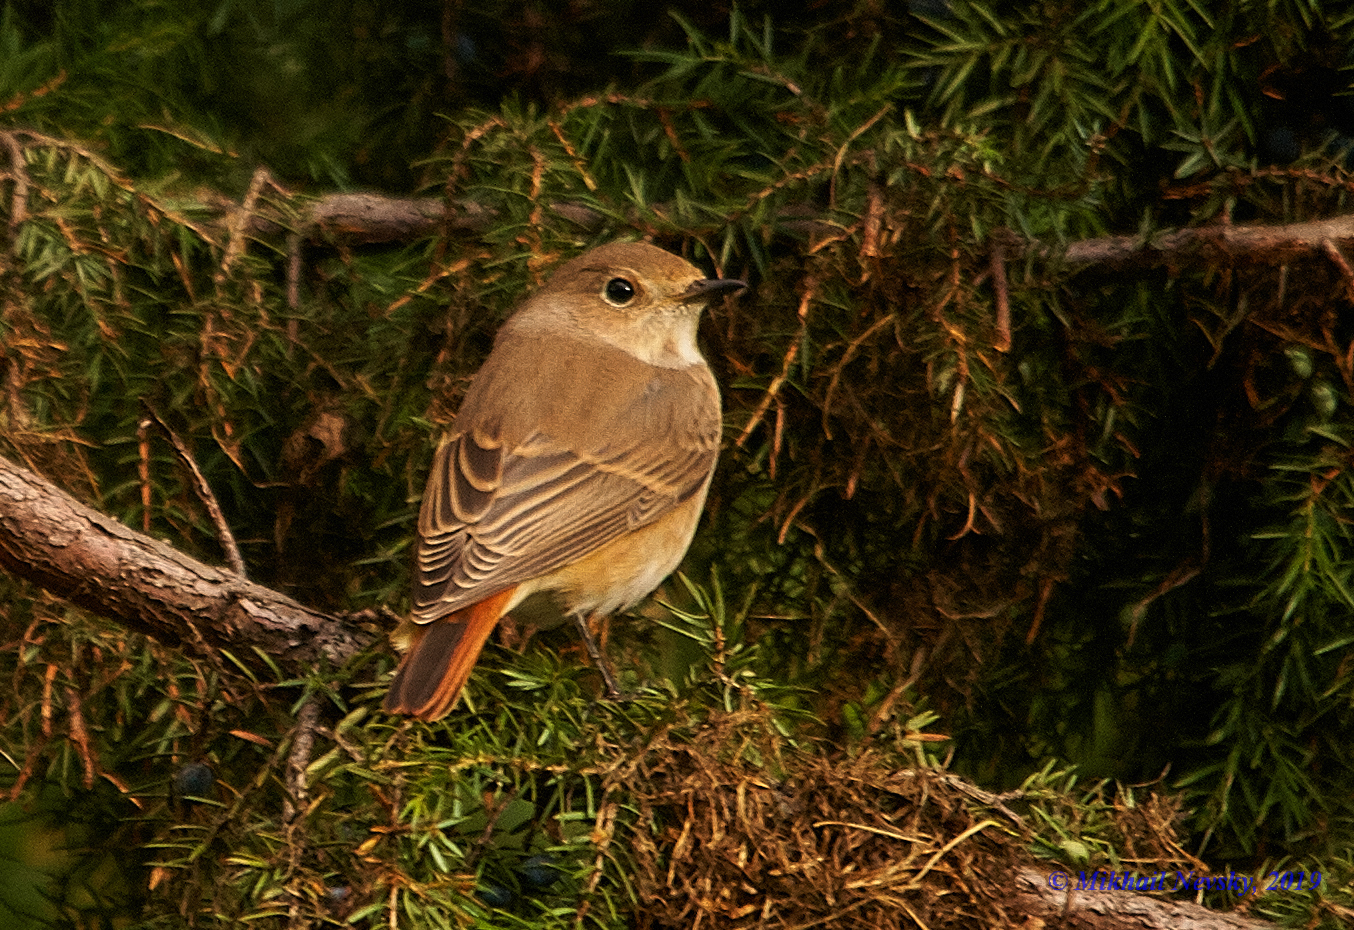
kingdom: Animalia
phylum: Chordata
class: Aves
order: Passeriformes
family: Muscicapidae
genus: Phoenicurus
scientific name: Phoenicurus phoenicurus
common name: Common redstart
